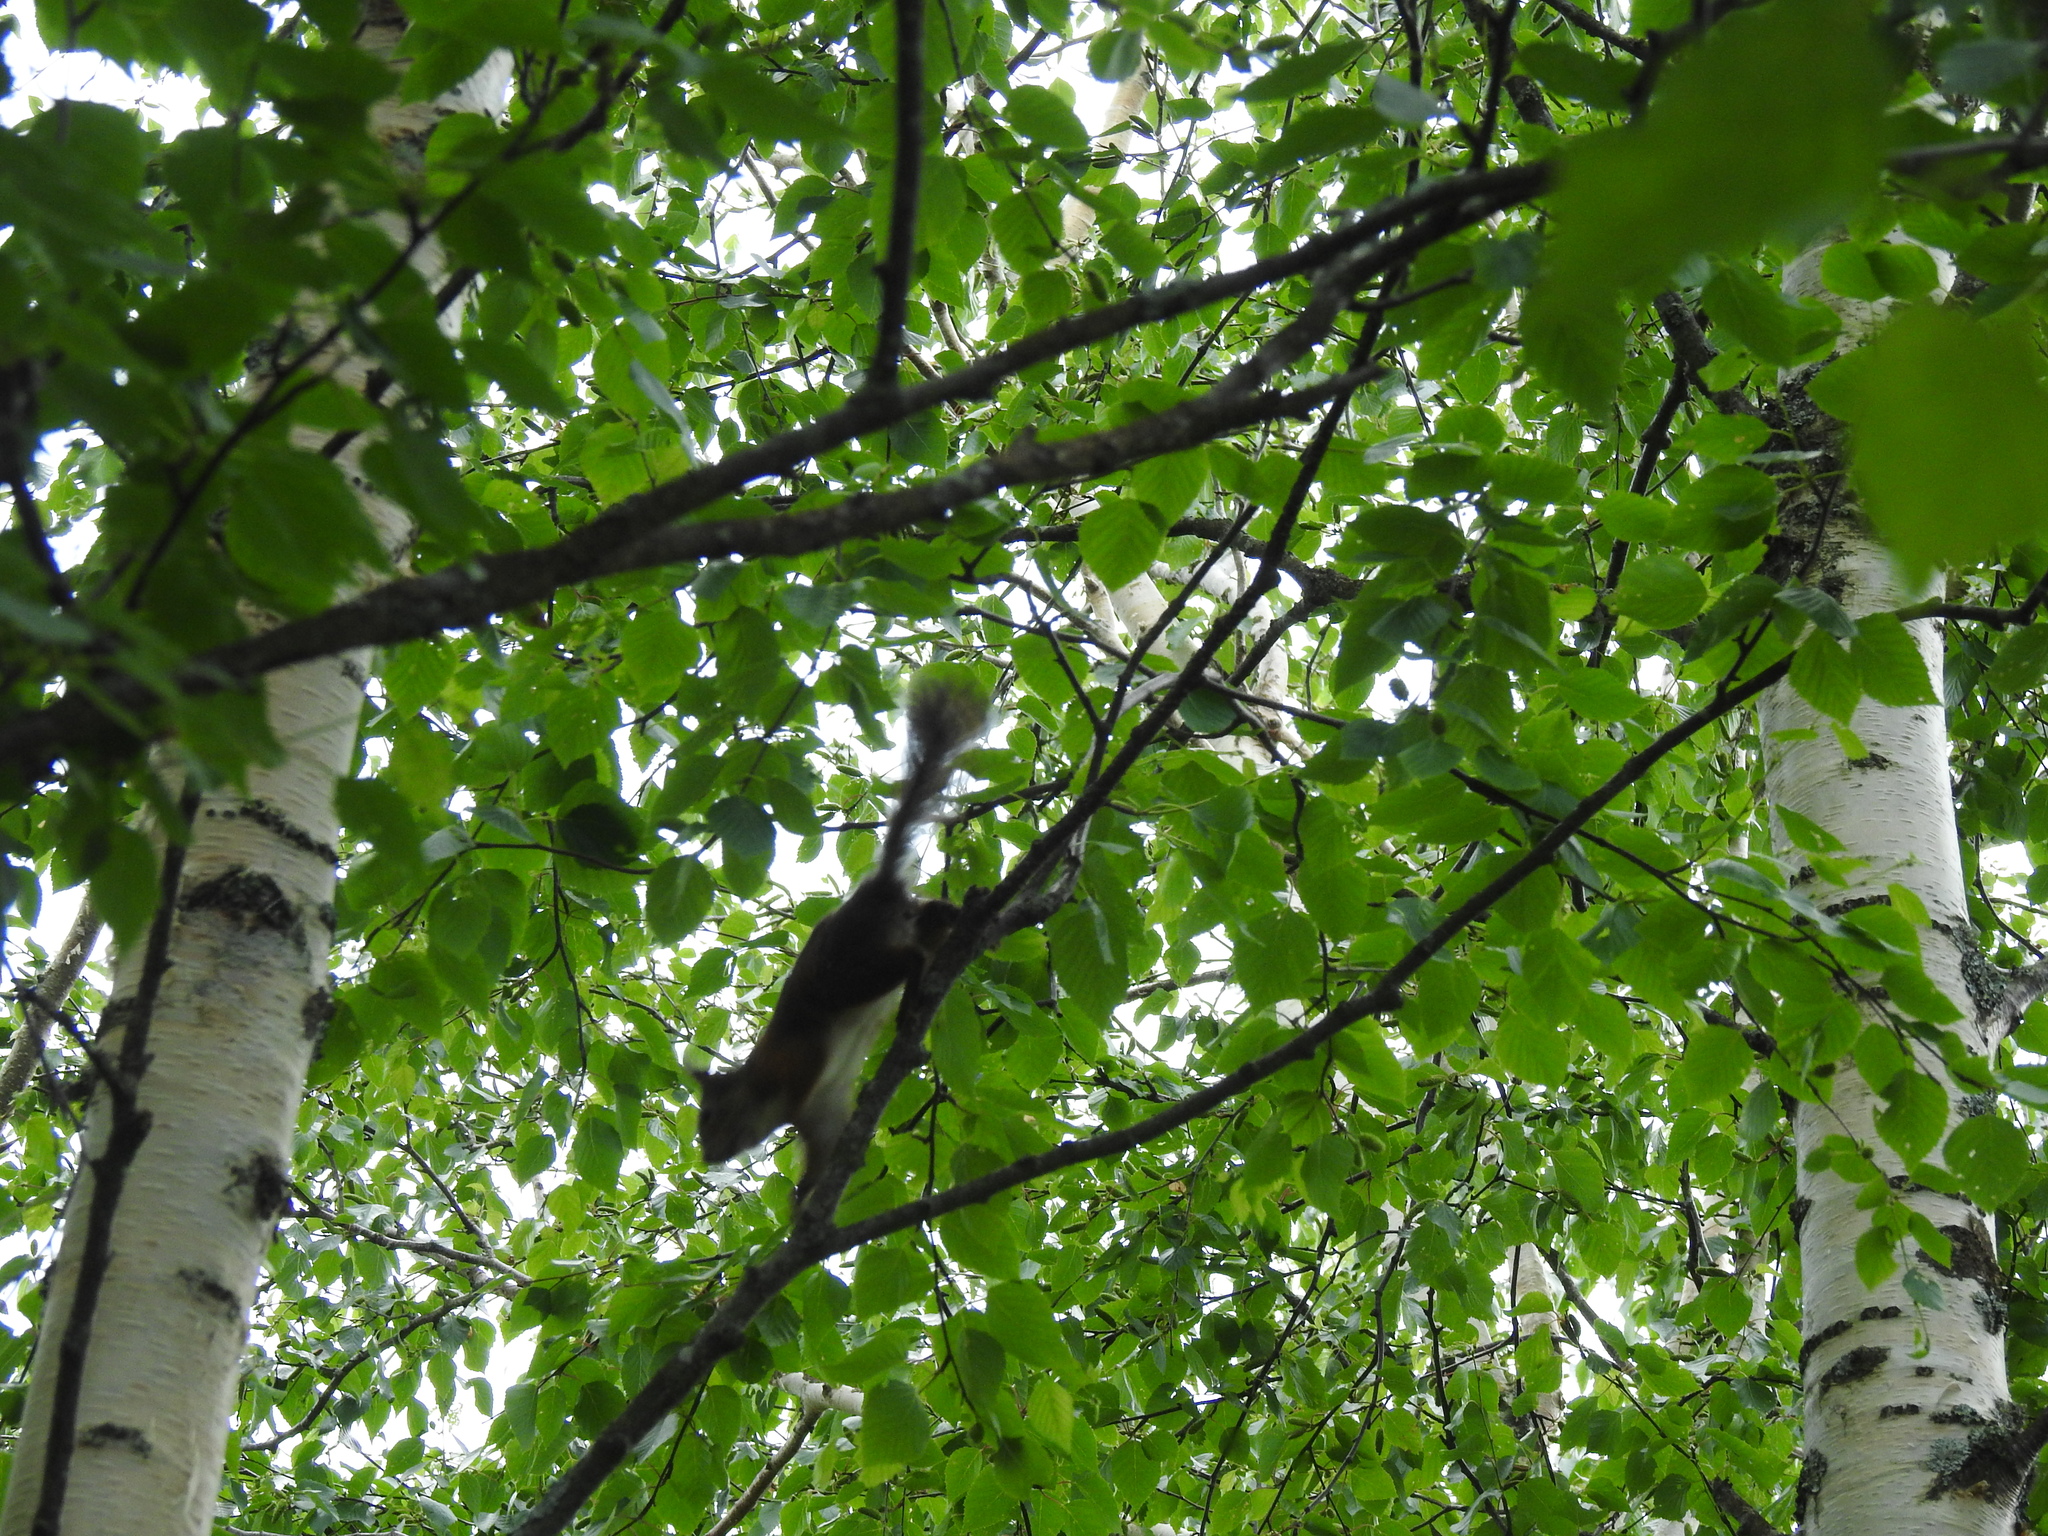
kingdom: Animalia
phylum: Chordata
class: Mammalia
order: Rodentia
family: Sciuridae
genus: Sciurus
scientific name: Sciurus vulgaris
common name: Eurasian red squirrel
